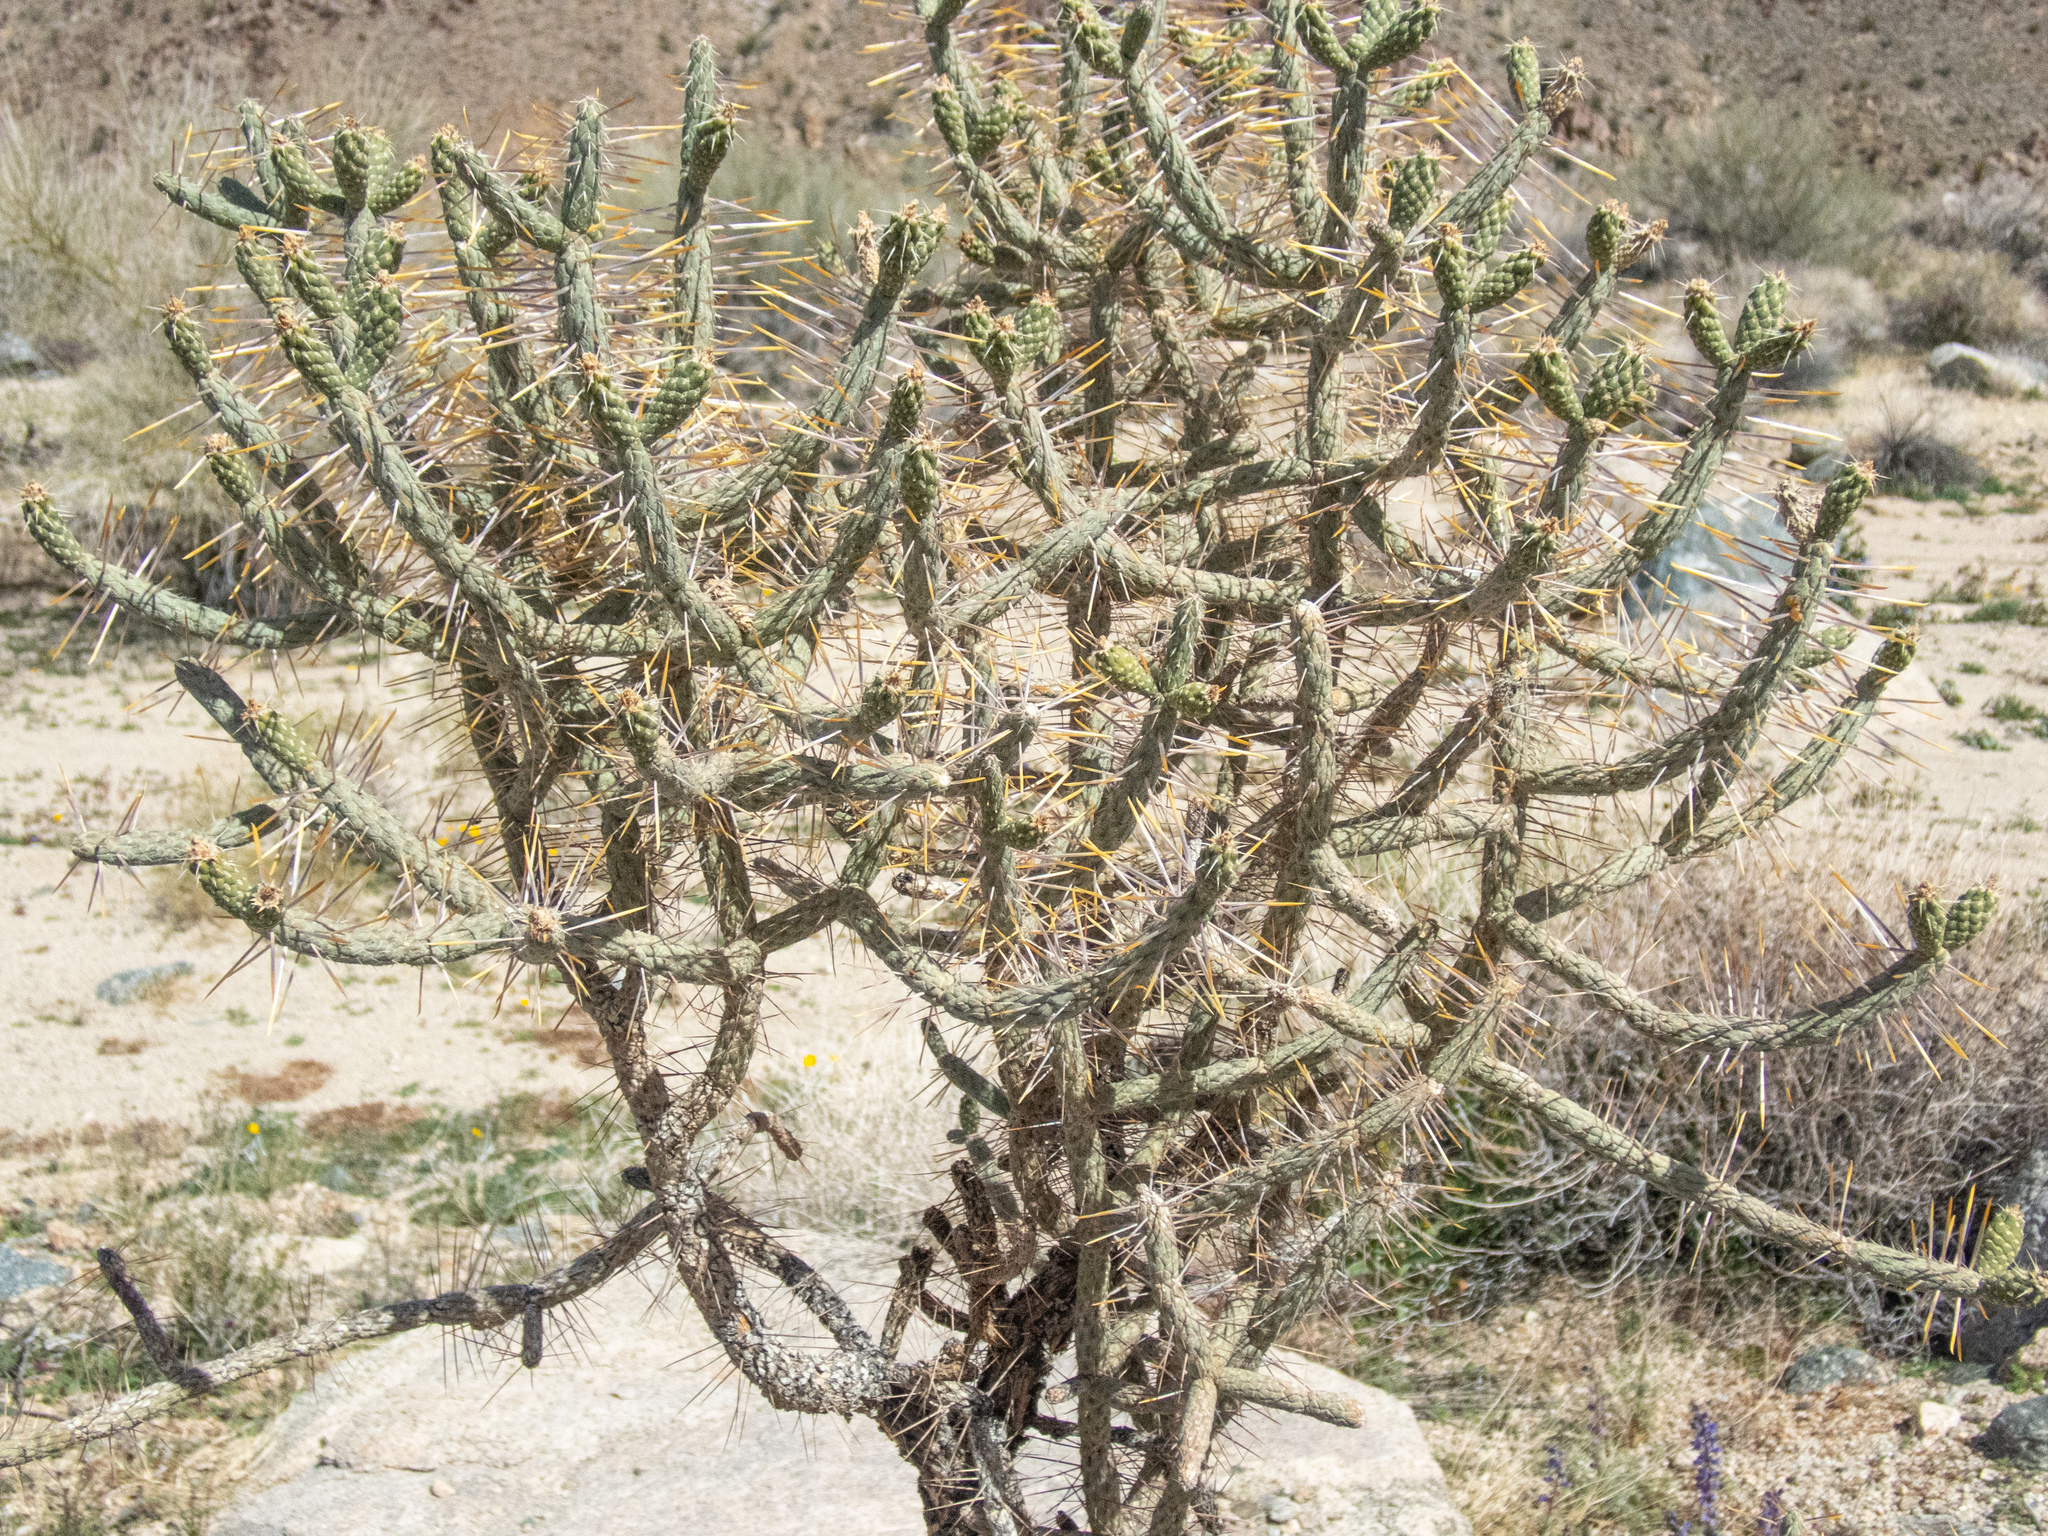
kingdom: Plantae
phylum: Tracheophyta
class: Magnoliopsida
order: Caryophyllales
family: Cactaceae
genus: Cylindropuntia
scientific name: Cylindropuntia ramosissima
